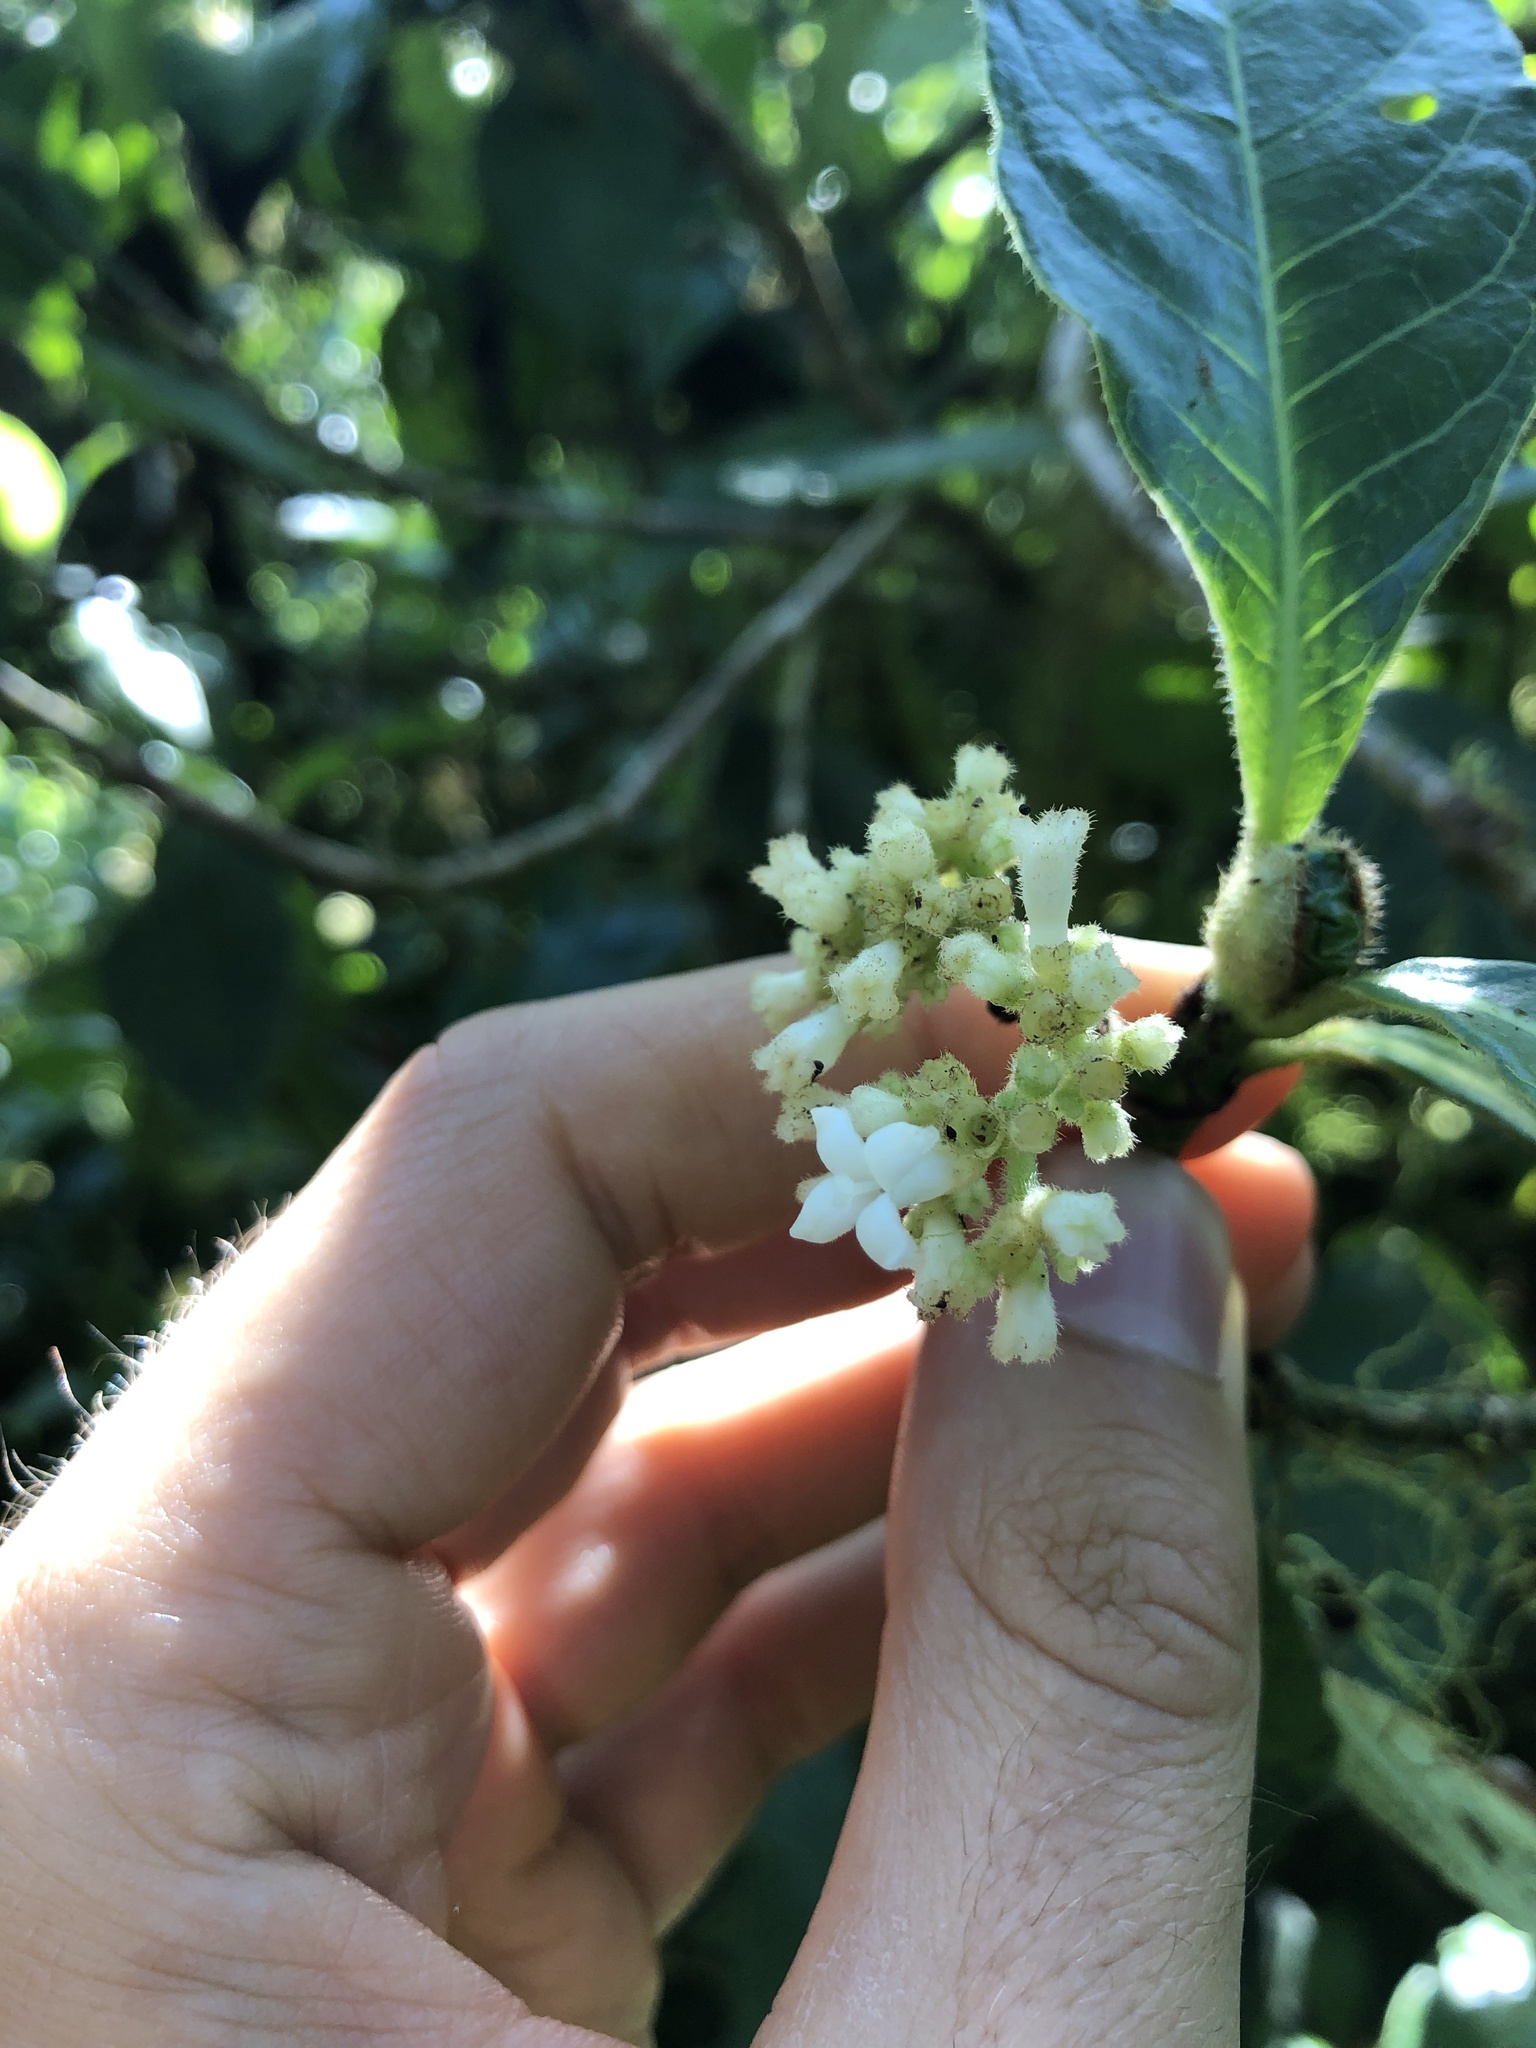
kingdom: Plantae
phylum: Tracheophyta
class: Magnoliopsida
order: Gentianales
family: Rubiaceae
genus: Psychotria
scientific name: Psychotria rufipes
